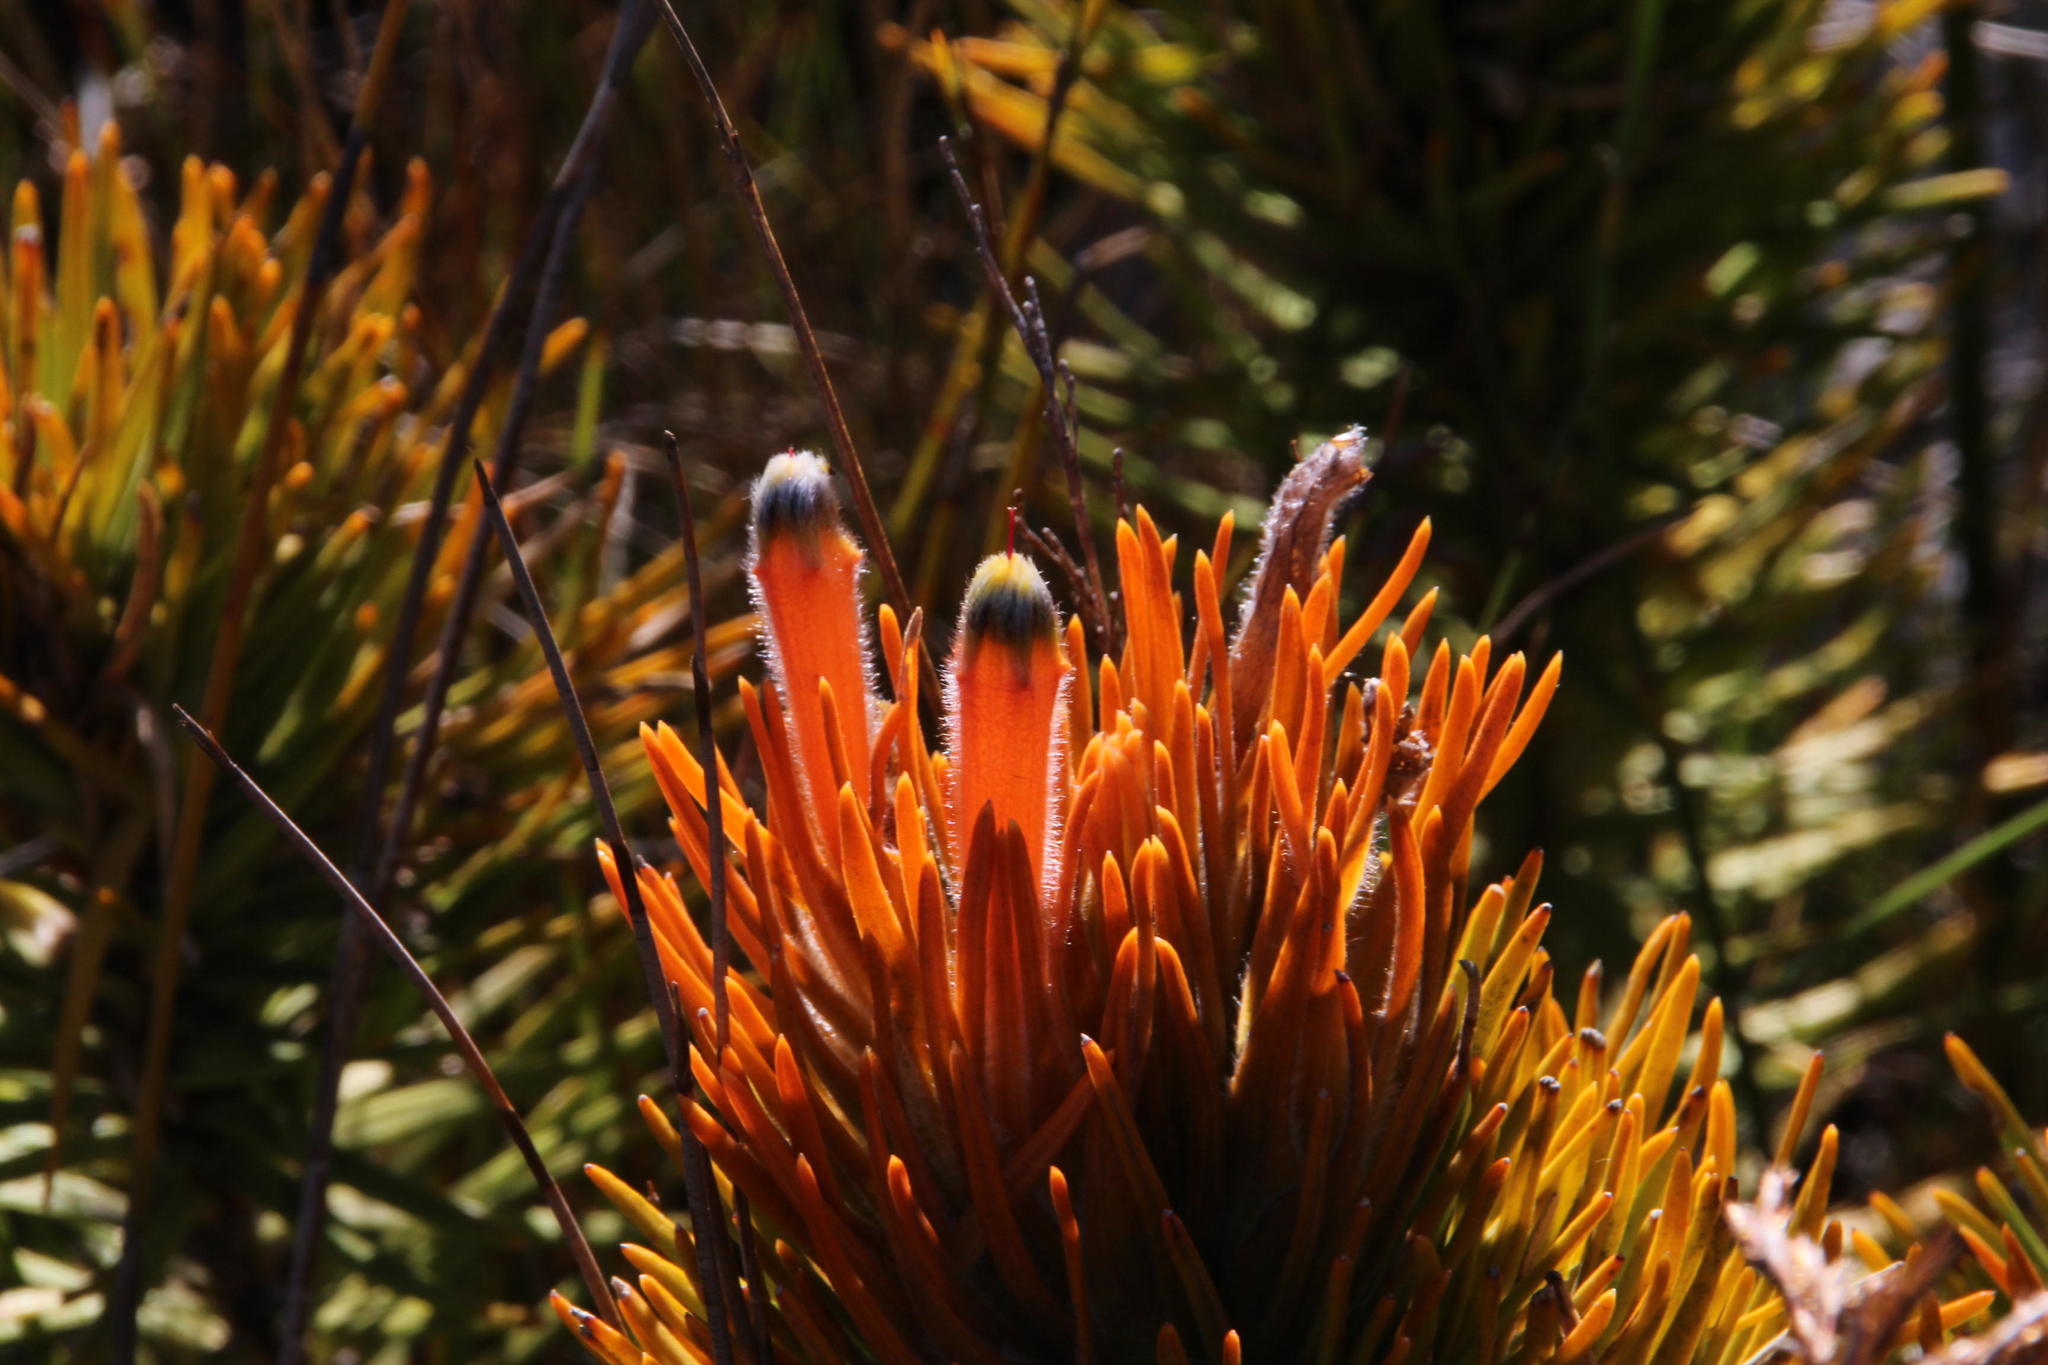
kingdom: Plantae
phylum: Tracheophyta
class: Magnoliopsida
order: Lamiales
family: Stilbaceae
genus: Retzia
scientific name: Retzia capensis
